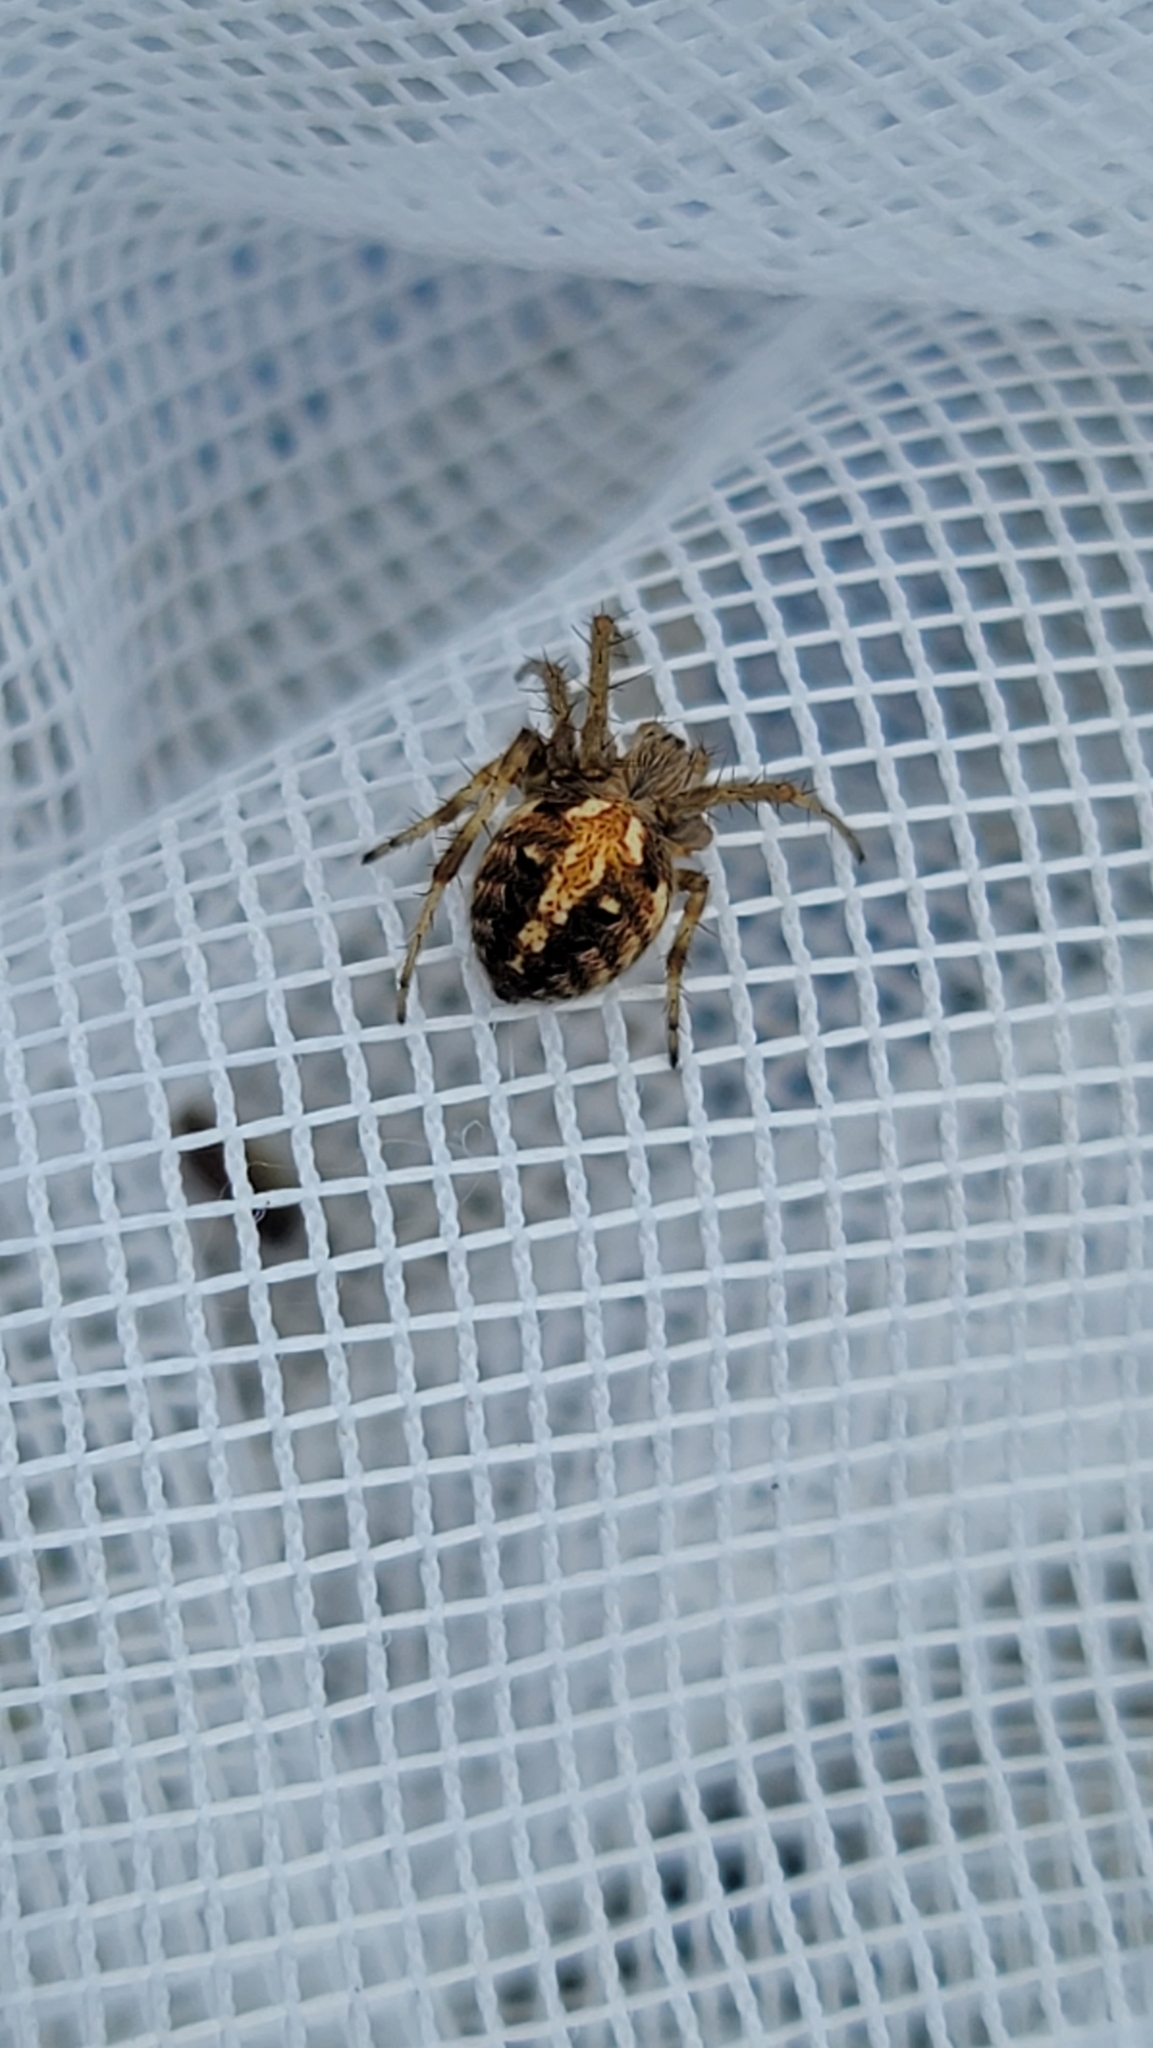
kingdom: Animalia
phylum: Arthropoda
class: Arachnida
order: Araneae
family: Araneidae
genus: Neoscona
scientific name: Neoscona arabesca
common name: Orb weavers
